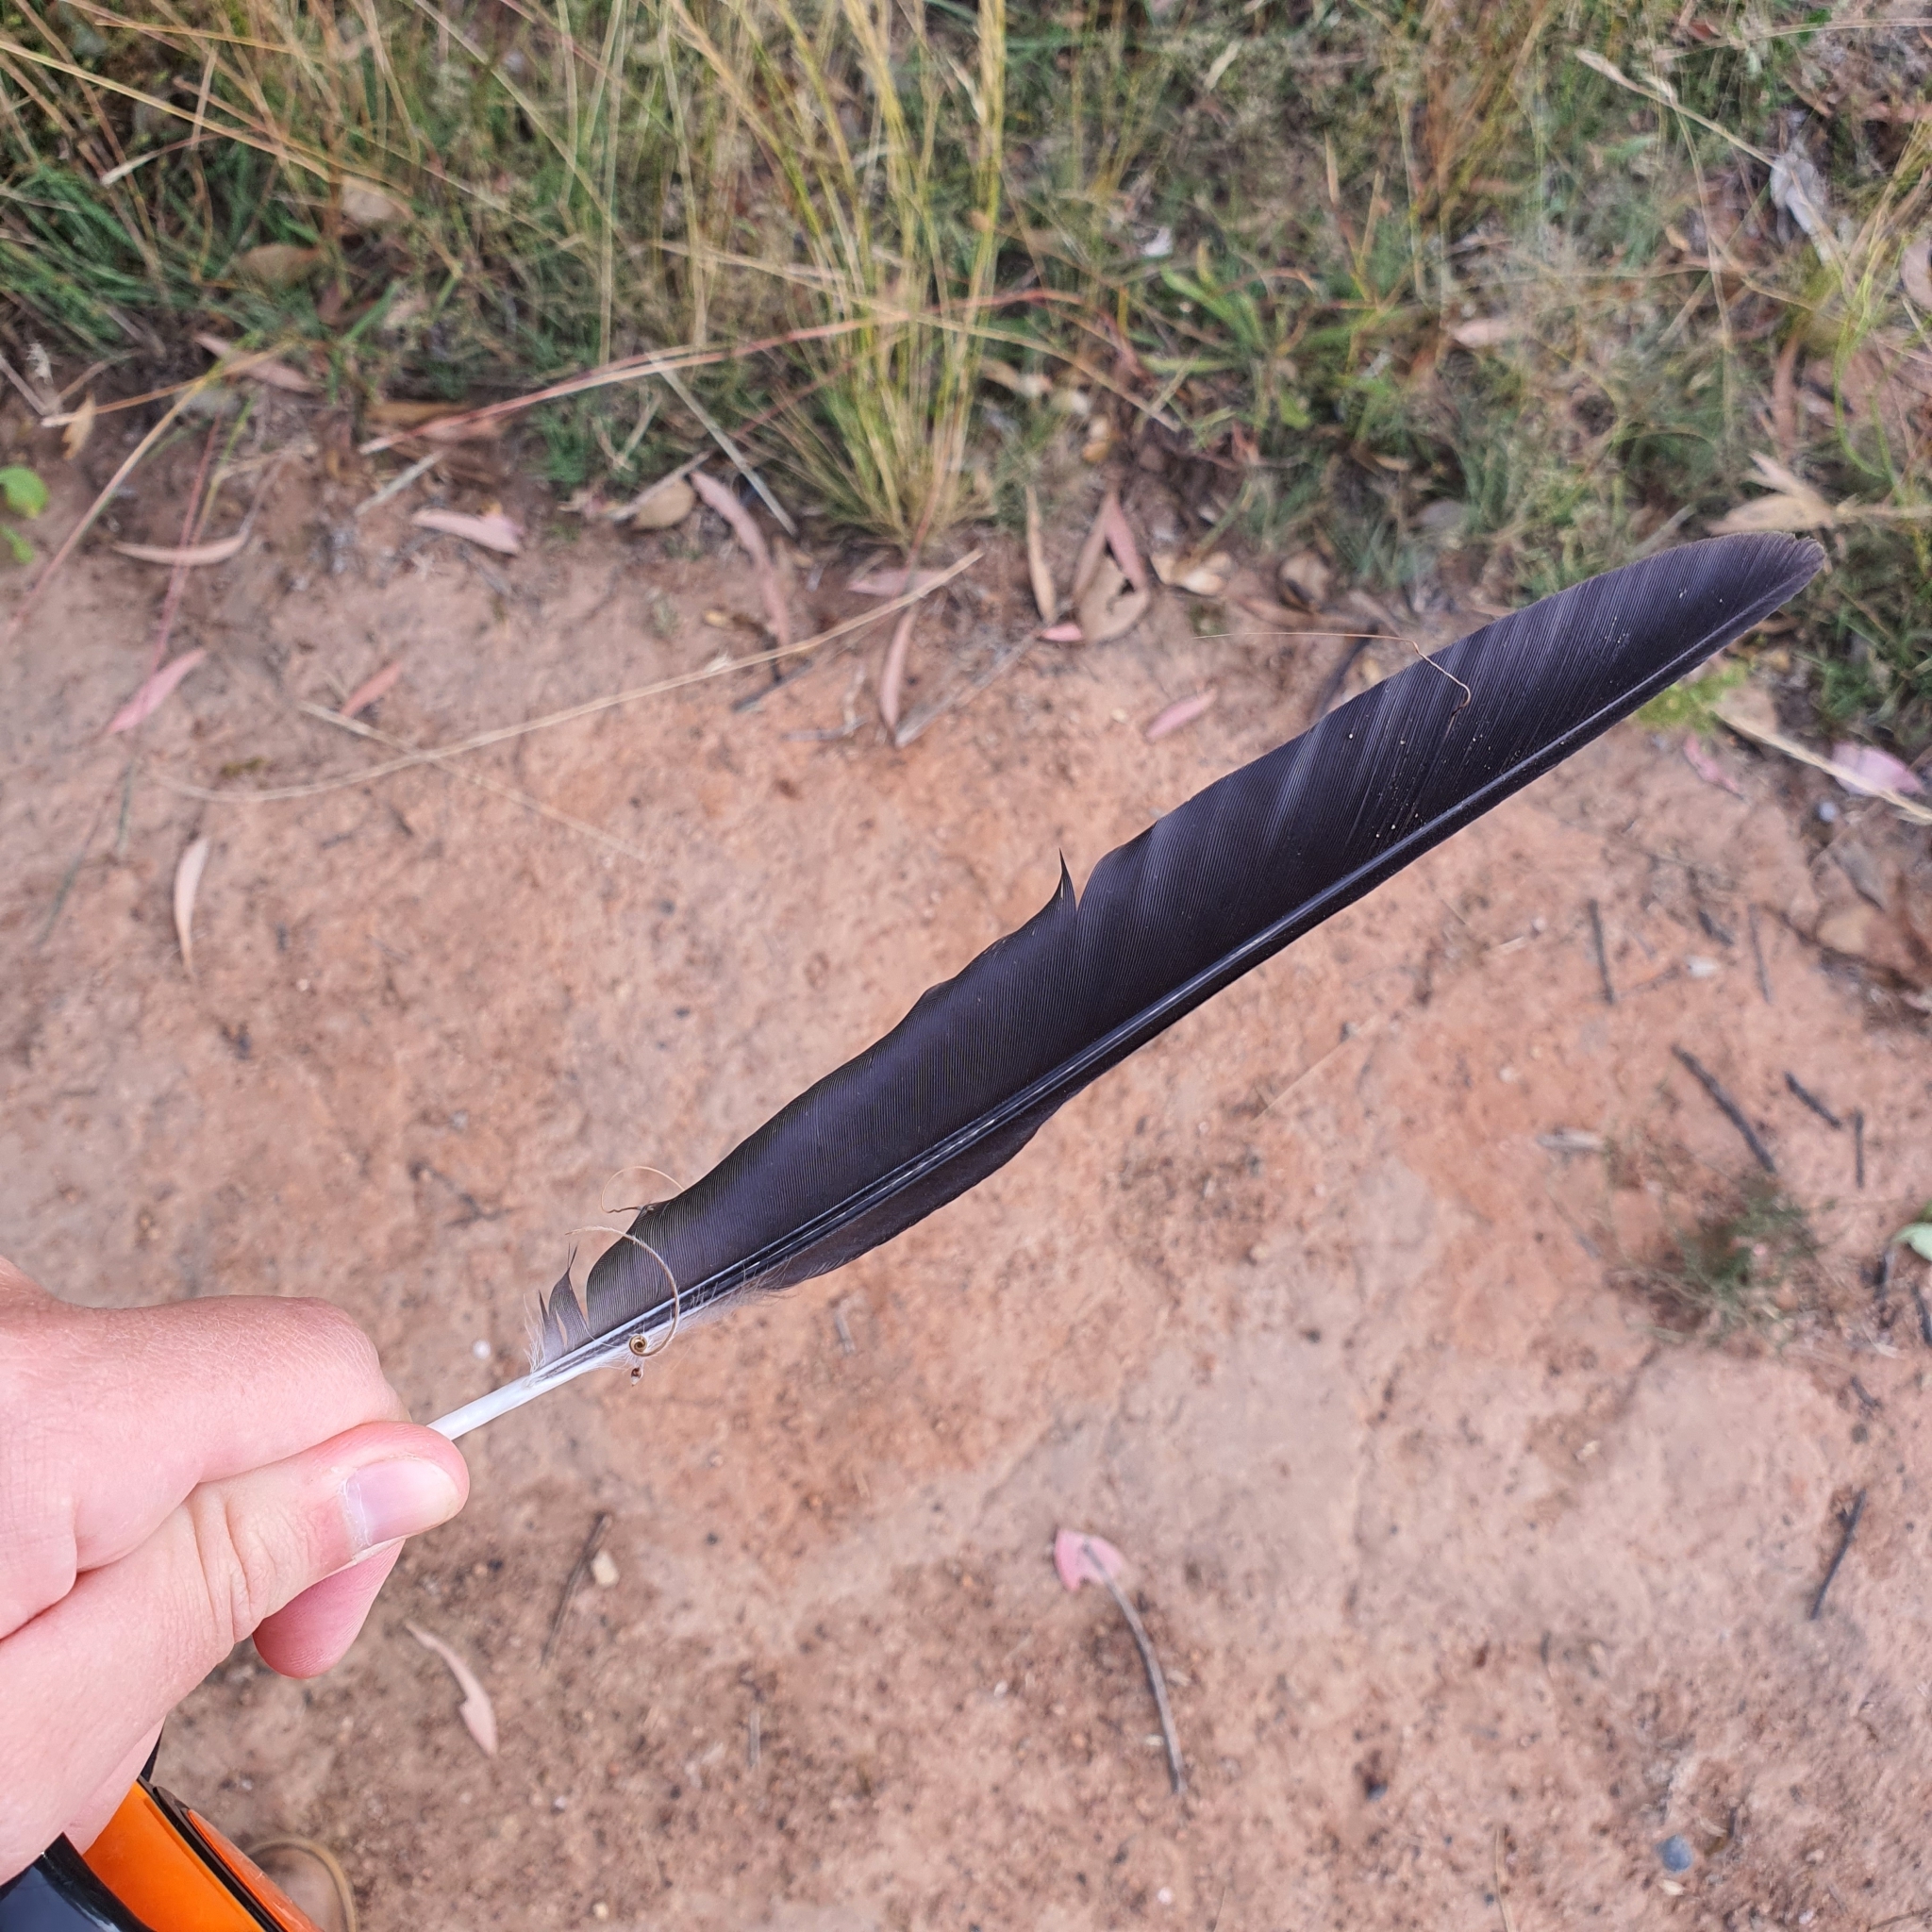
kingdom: Animalia
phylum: Chordata
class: Aves
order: Passeriformes
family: Cracticidae
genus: Gymnorhina
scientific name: Gymnorhina tibicen
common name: Australian magpie
